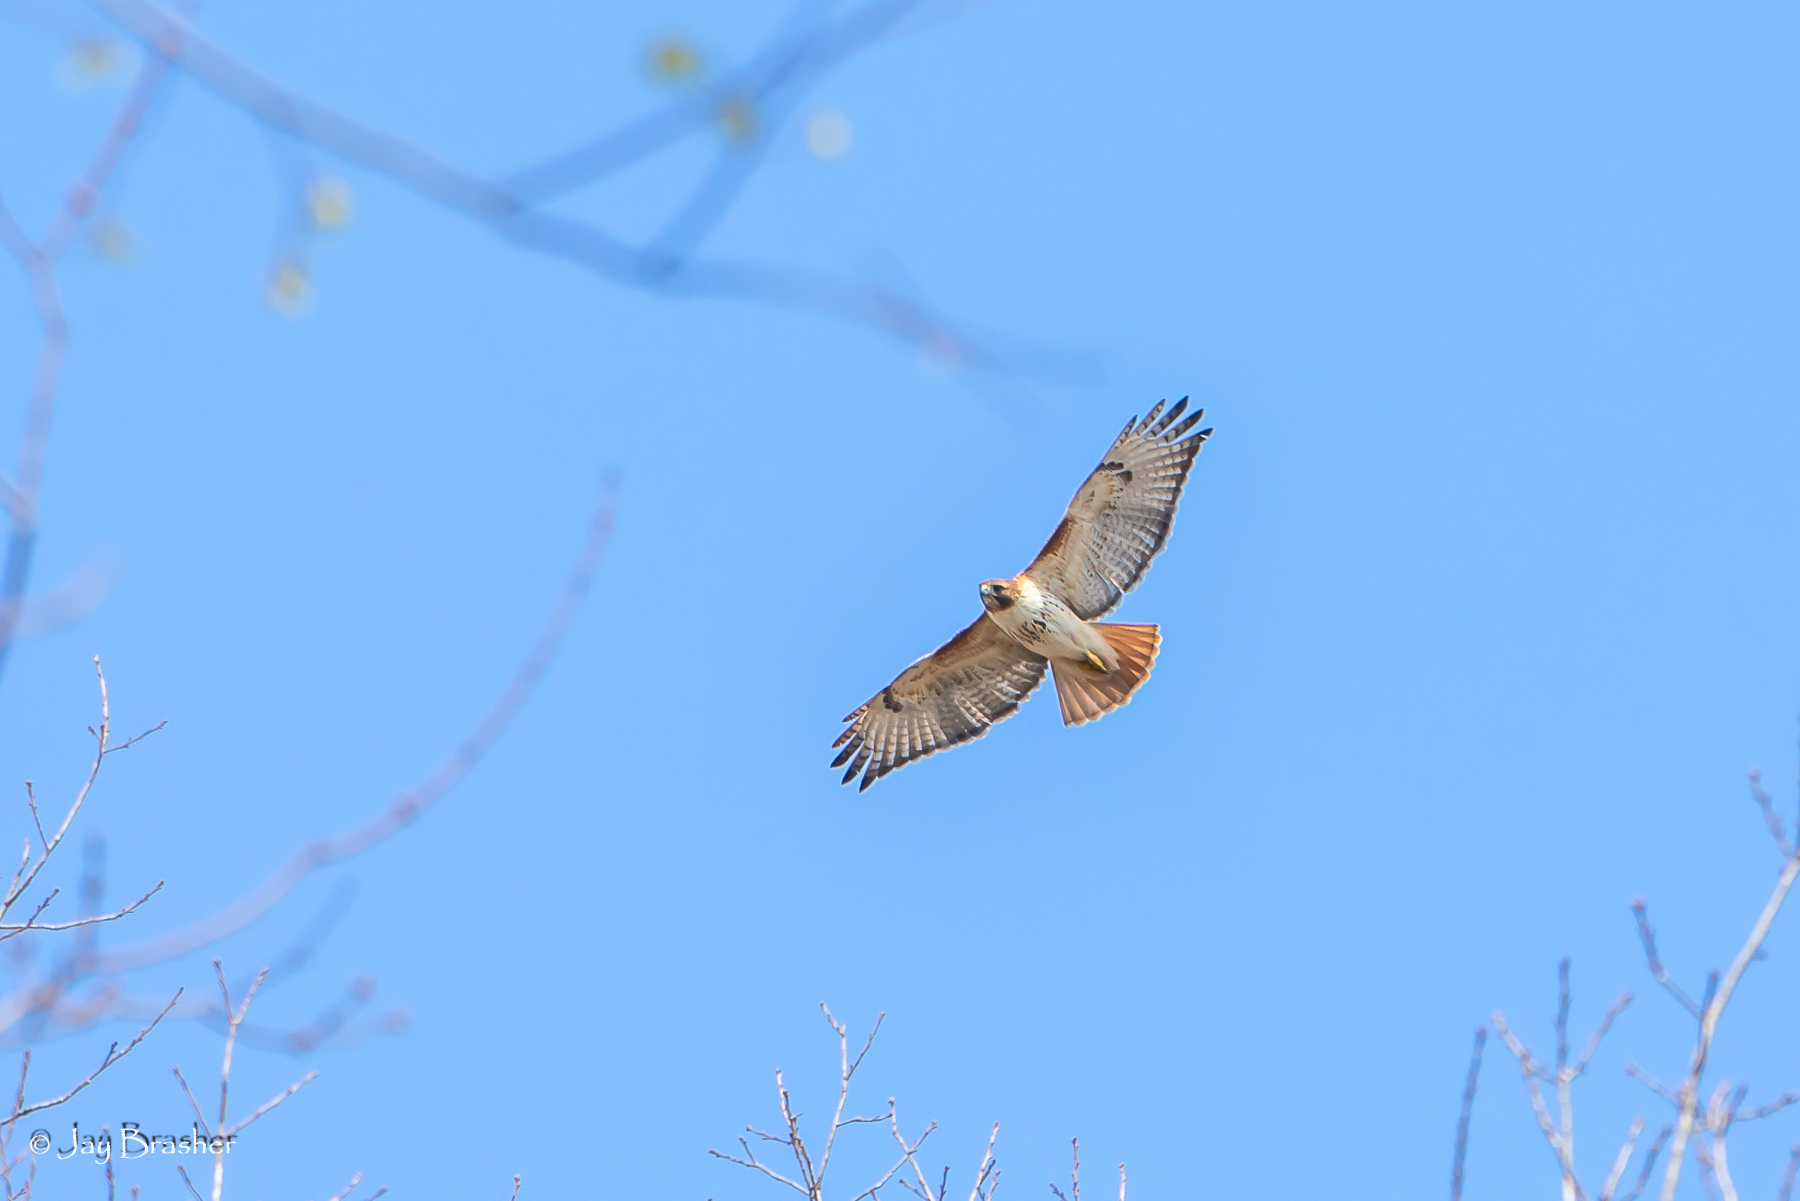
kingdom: Animalia
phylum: Chordata
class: Aves
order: Accipitriformes
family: Accipitridae
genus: Buteo
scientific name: Buteo jamaicensis
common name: Red-tailed hawk
